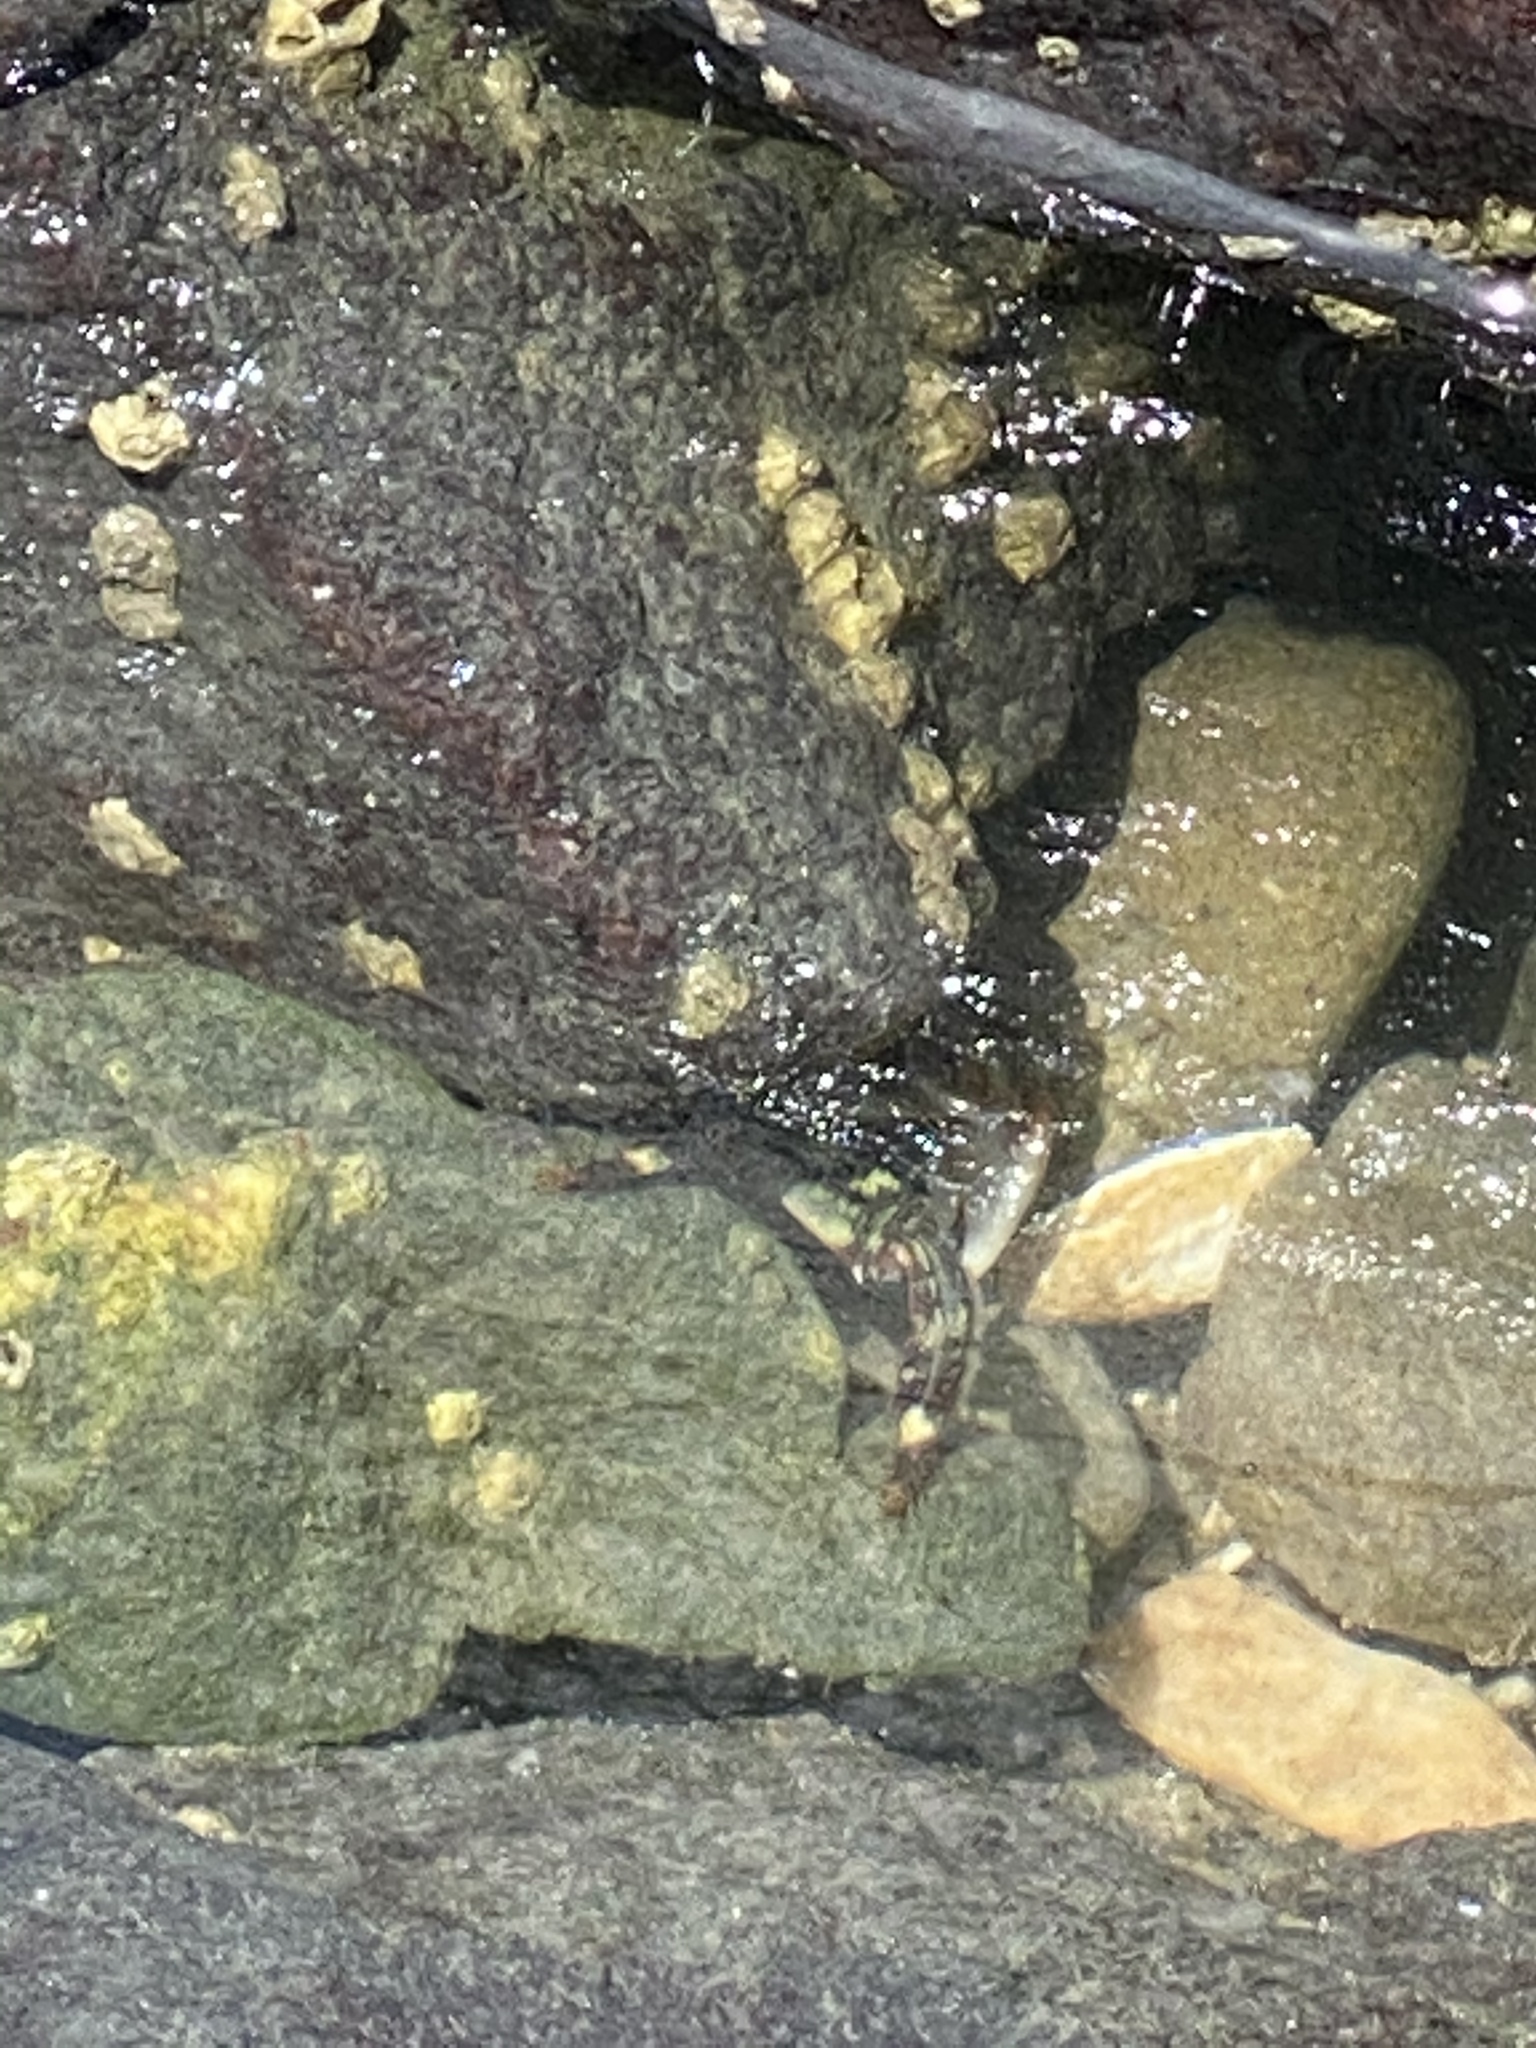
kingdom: Animalia
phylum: Arthropoda
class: Malacostraca
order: Decapoda
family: Grapsidae
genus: Pachygrapsus
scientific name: Pachygrapsus crassipes
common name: Striped shore crab
